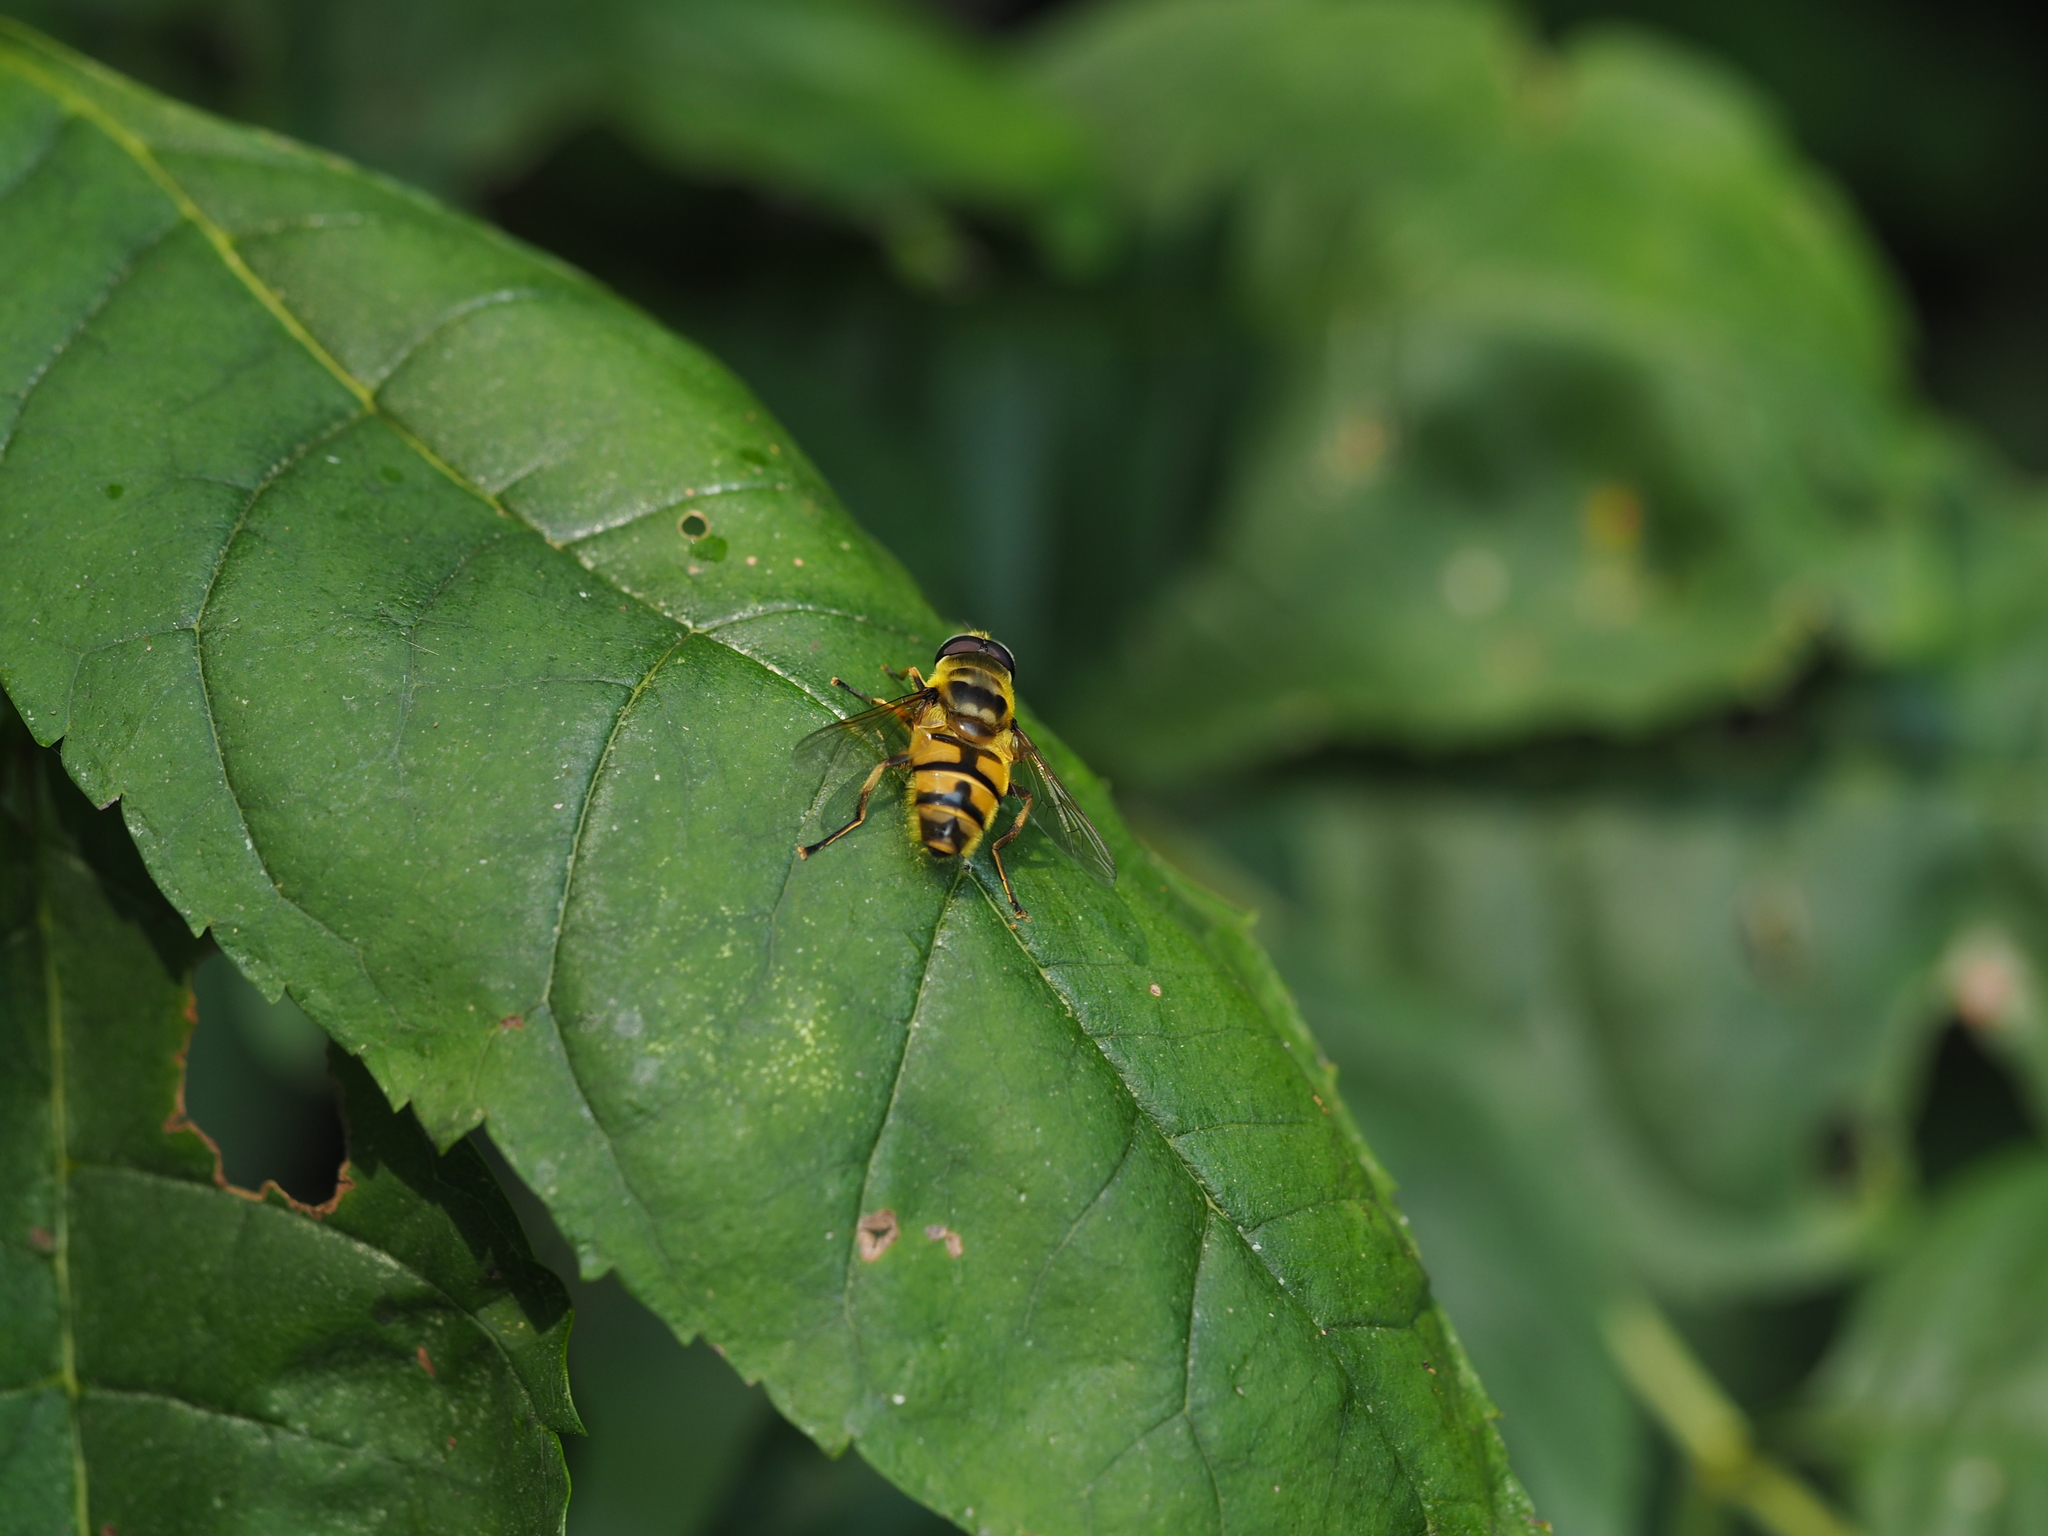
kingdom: Animalia
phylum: Arthropoda
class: Insecta
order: Diptera
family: Syrphidae
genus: Myathropa
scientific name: Myathropa florea
